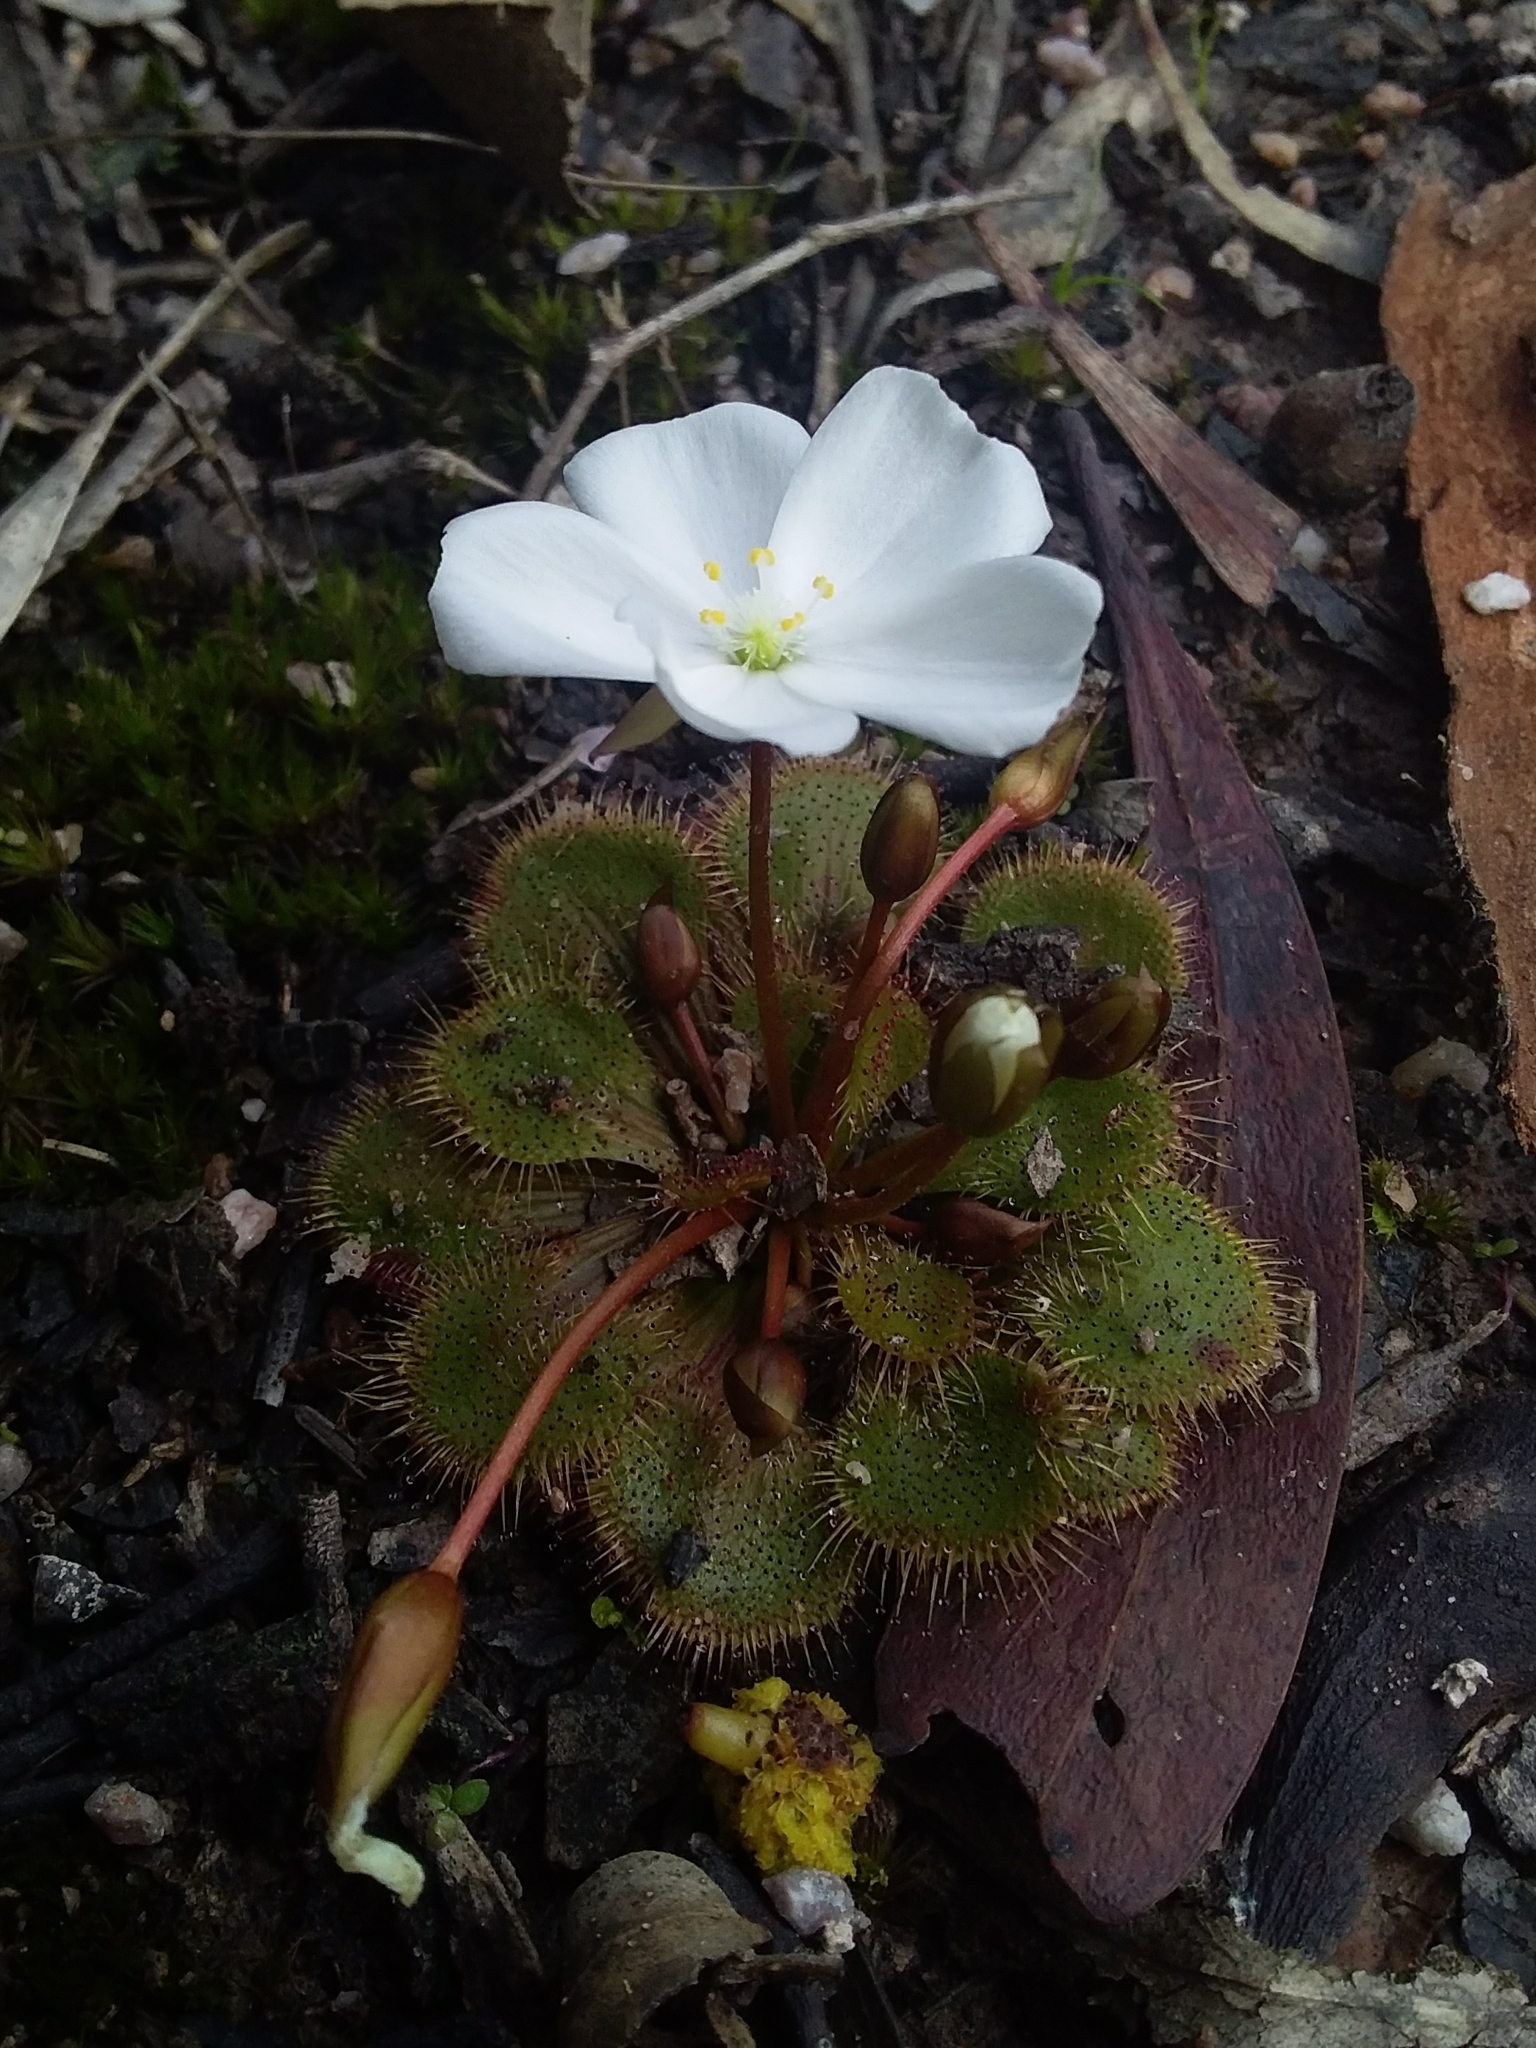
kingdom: Plantae
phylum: Tracheophyta
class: Magnoliopsida
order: Caryophyllales
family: Droseraceae
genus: Drosera
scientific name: Drosera whittakeri
